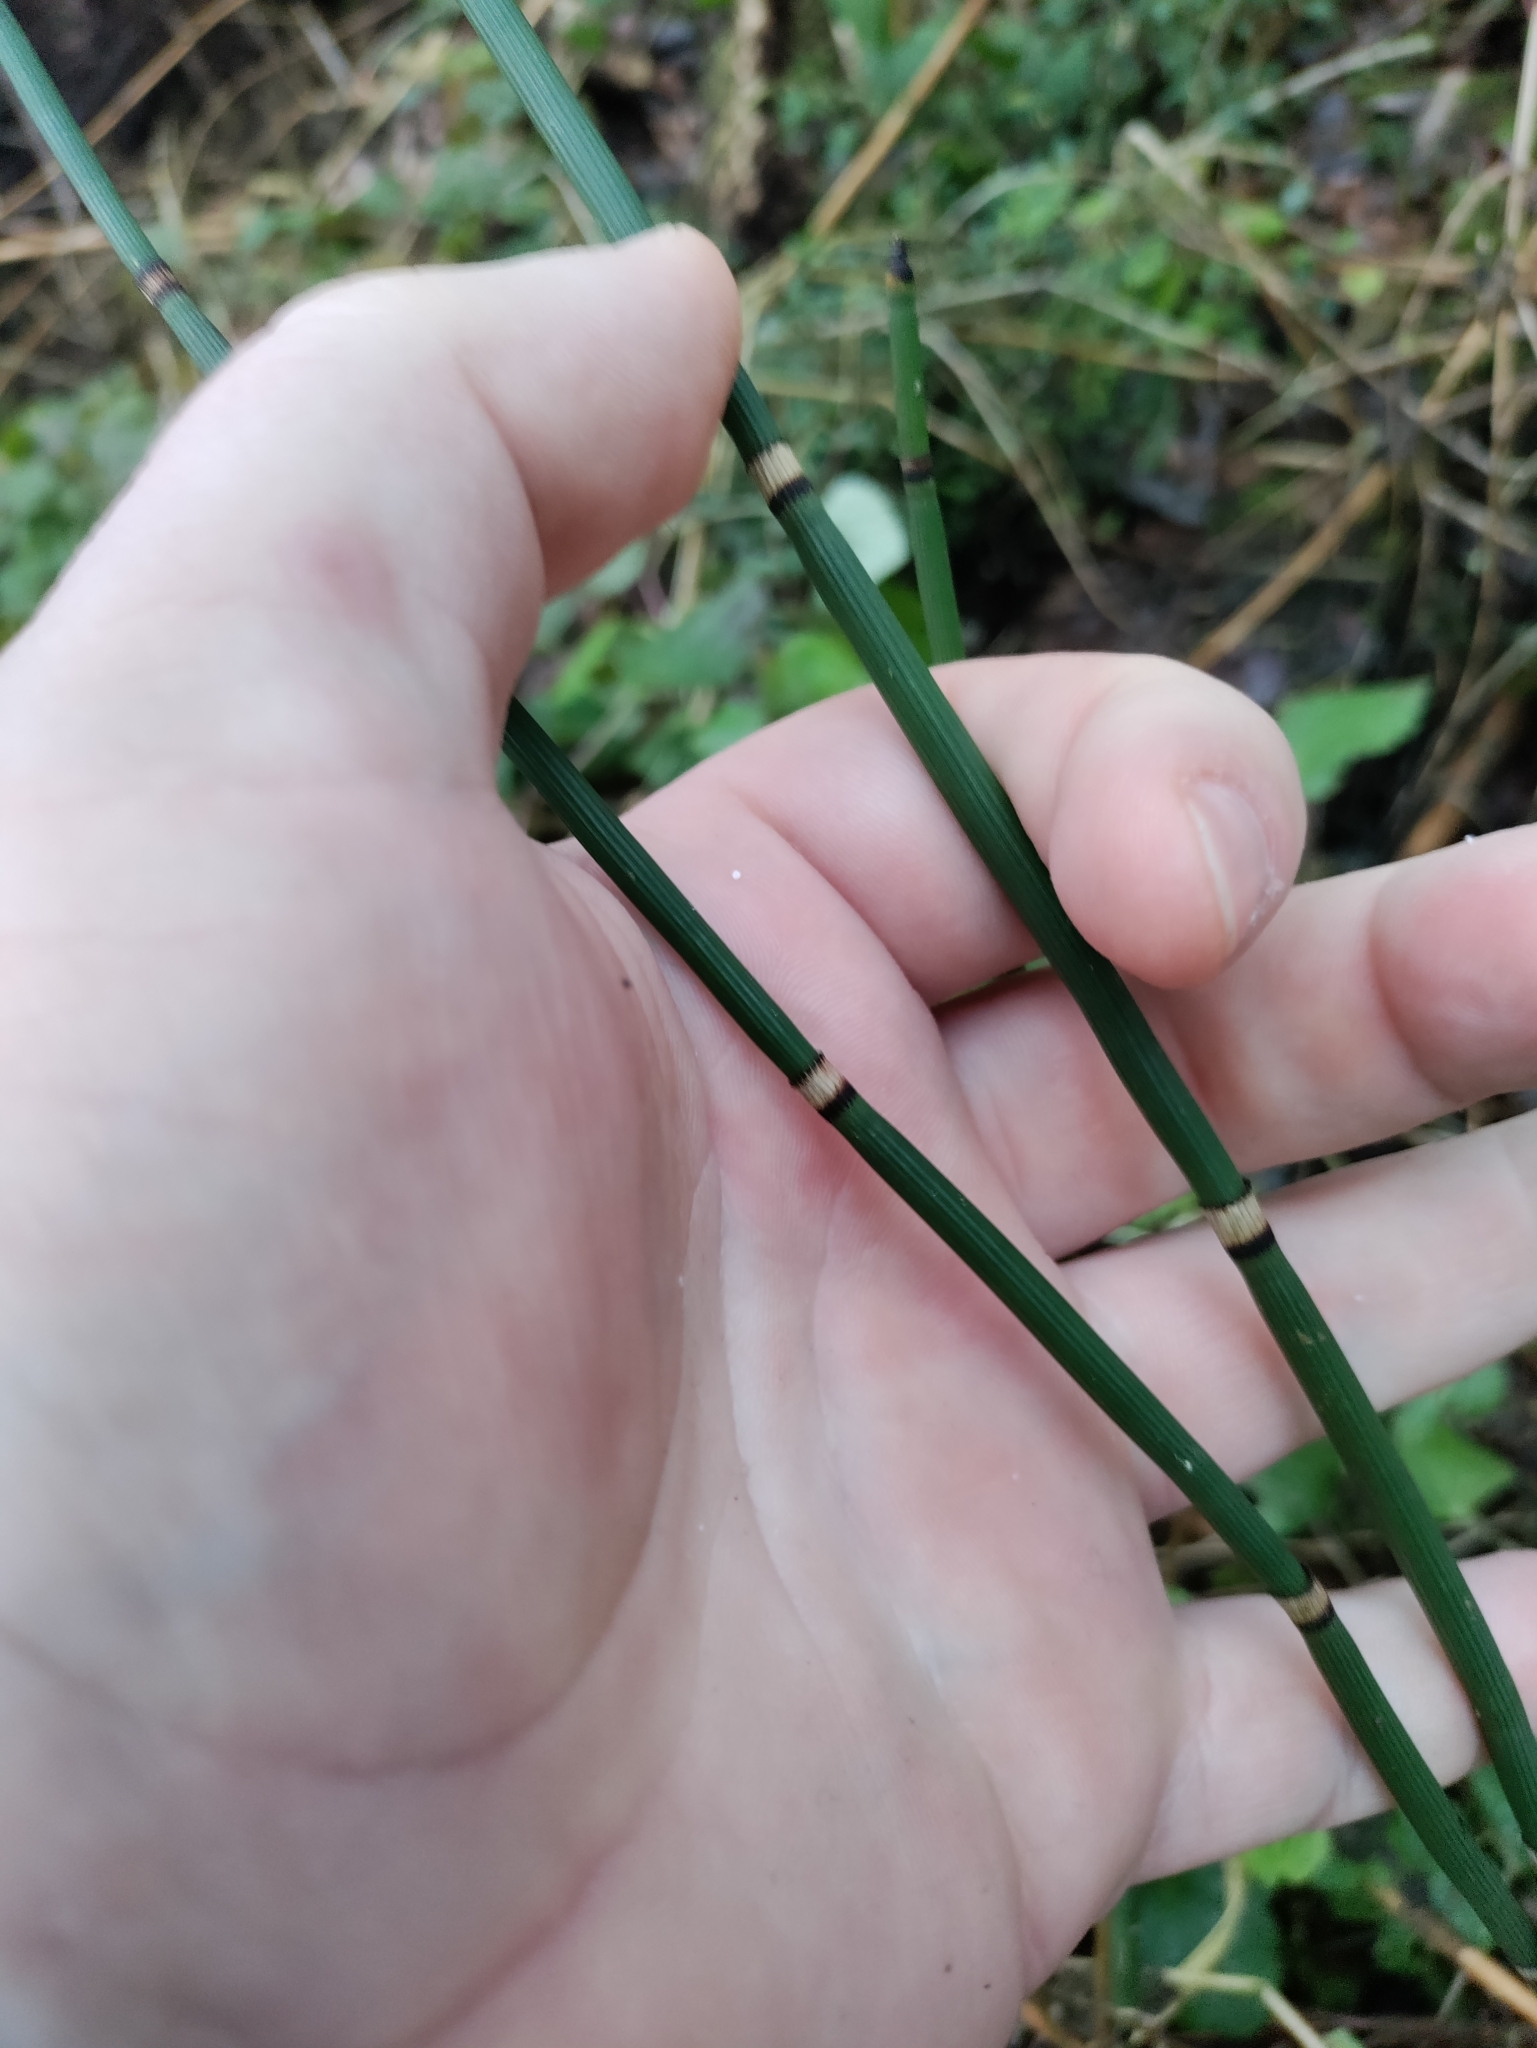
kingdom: Plantae
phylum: Tracheophyta
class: Polypodiopsida
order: Equisetales
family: Equisetaceae
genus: Equisetum
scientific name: Equisetum hyemale
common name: Rough horsetail
